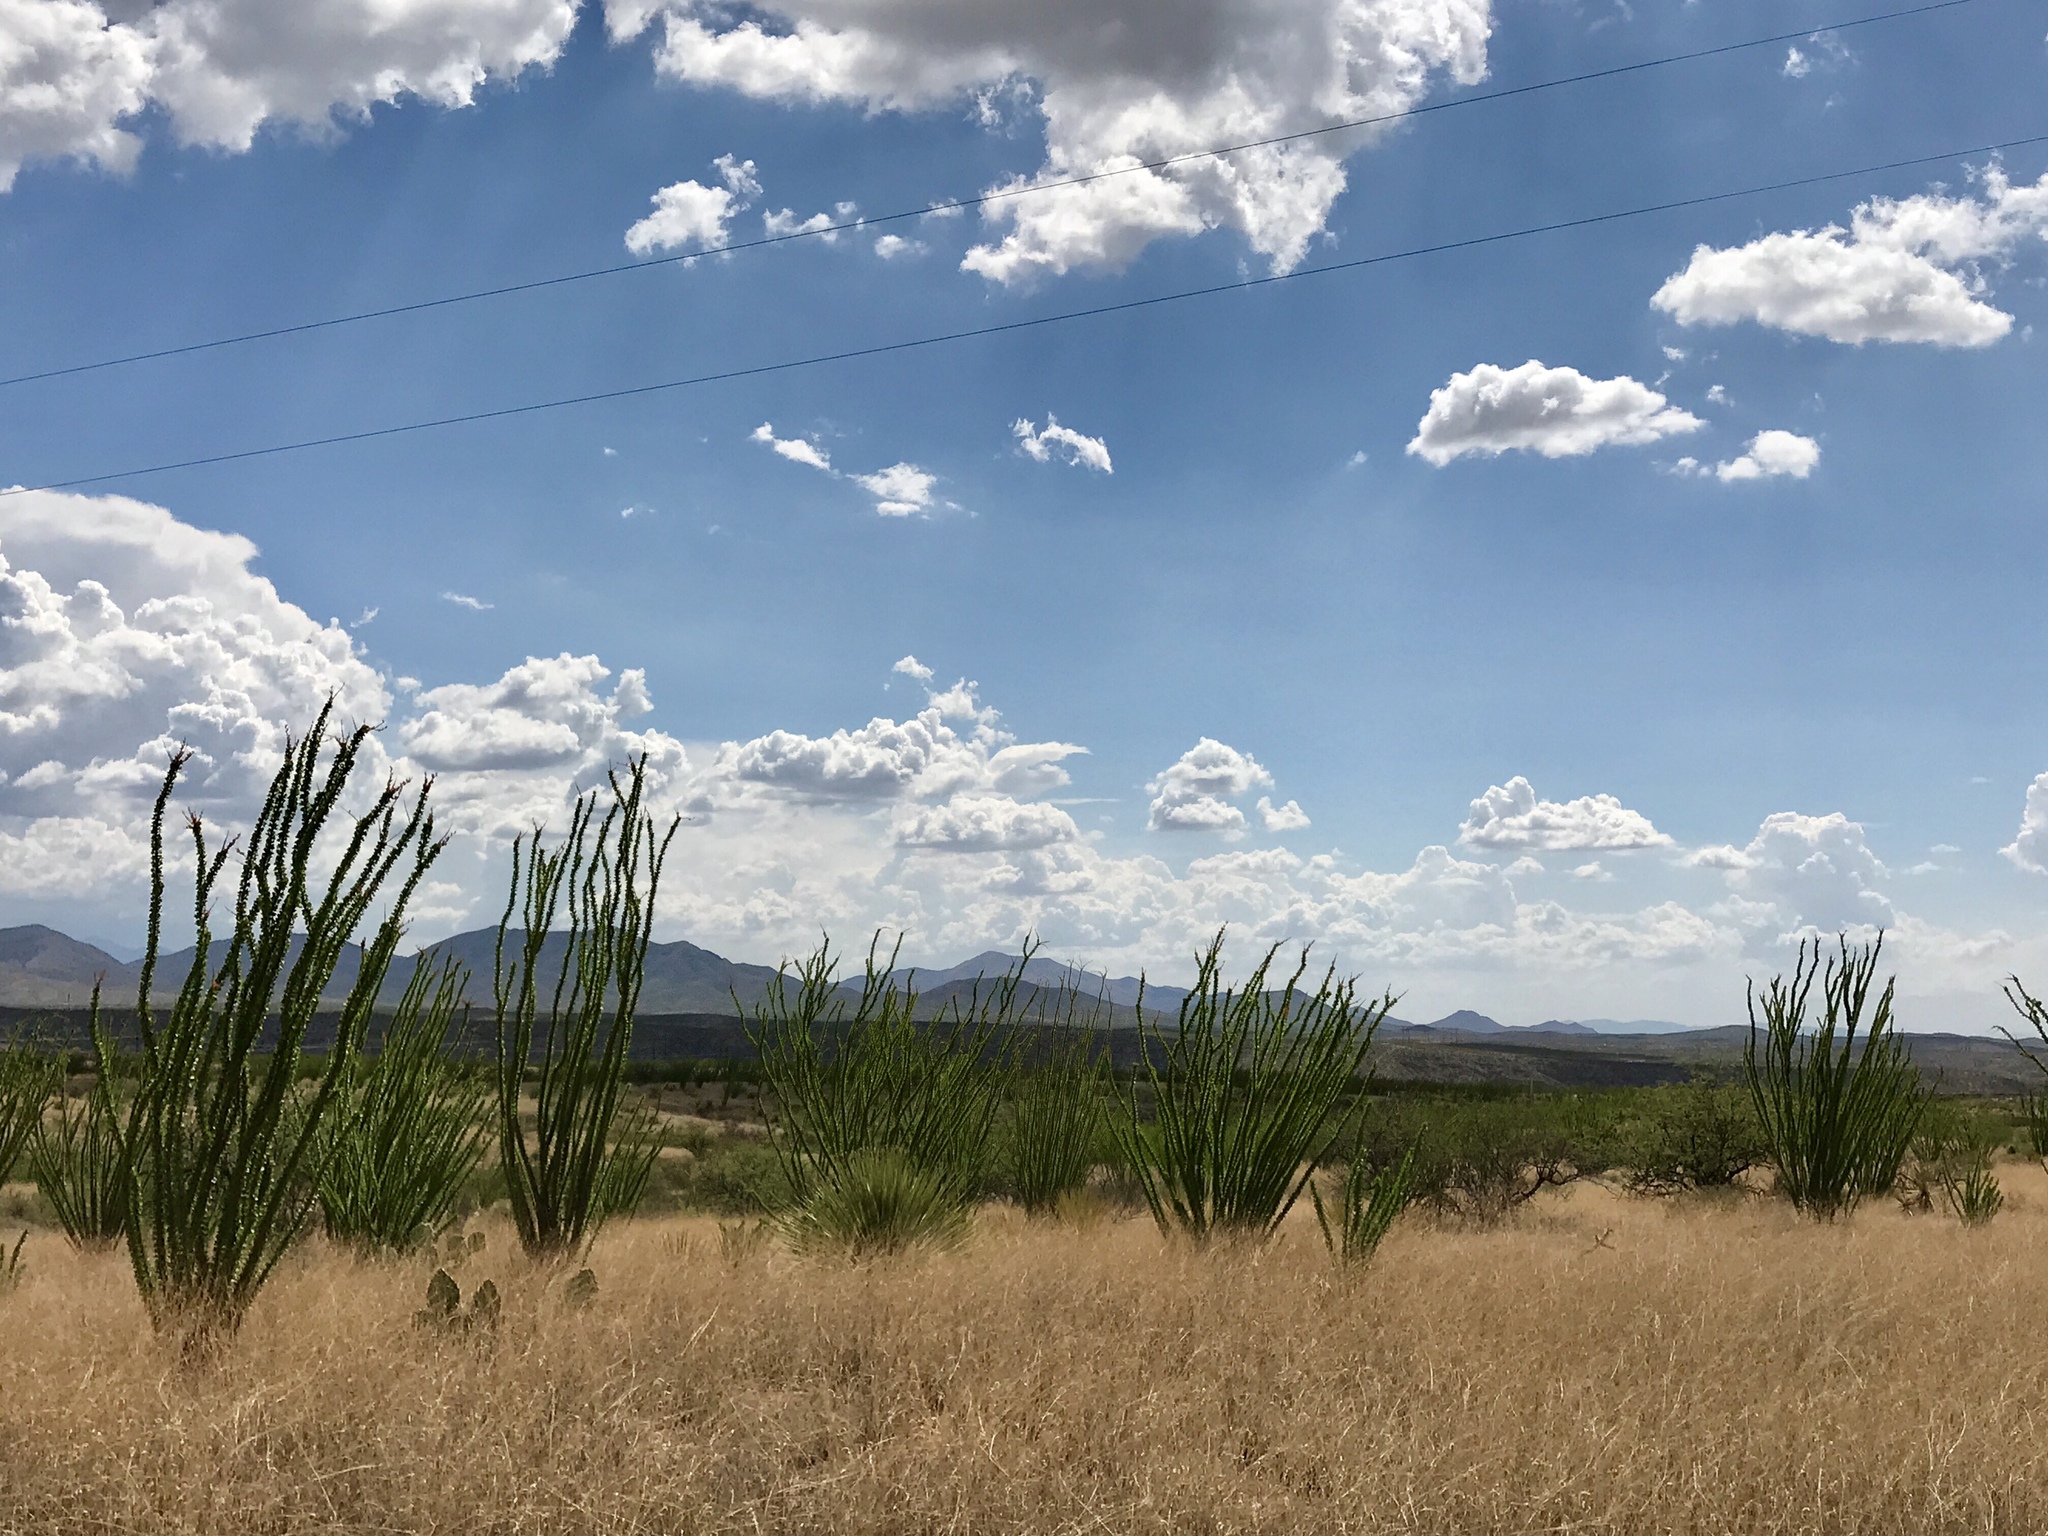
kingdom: Plantae
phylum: Tracheophyta
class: Magnoliopsida
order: Ericales
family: Fouquieriaceae
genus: Fouquieria
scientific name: Fouquieria splendens
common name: Vine-cactus
